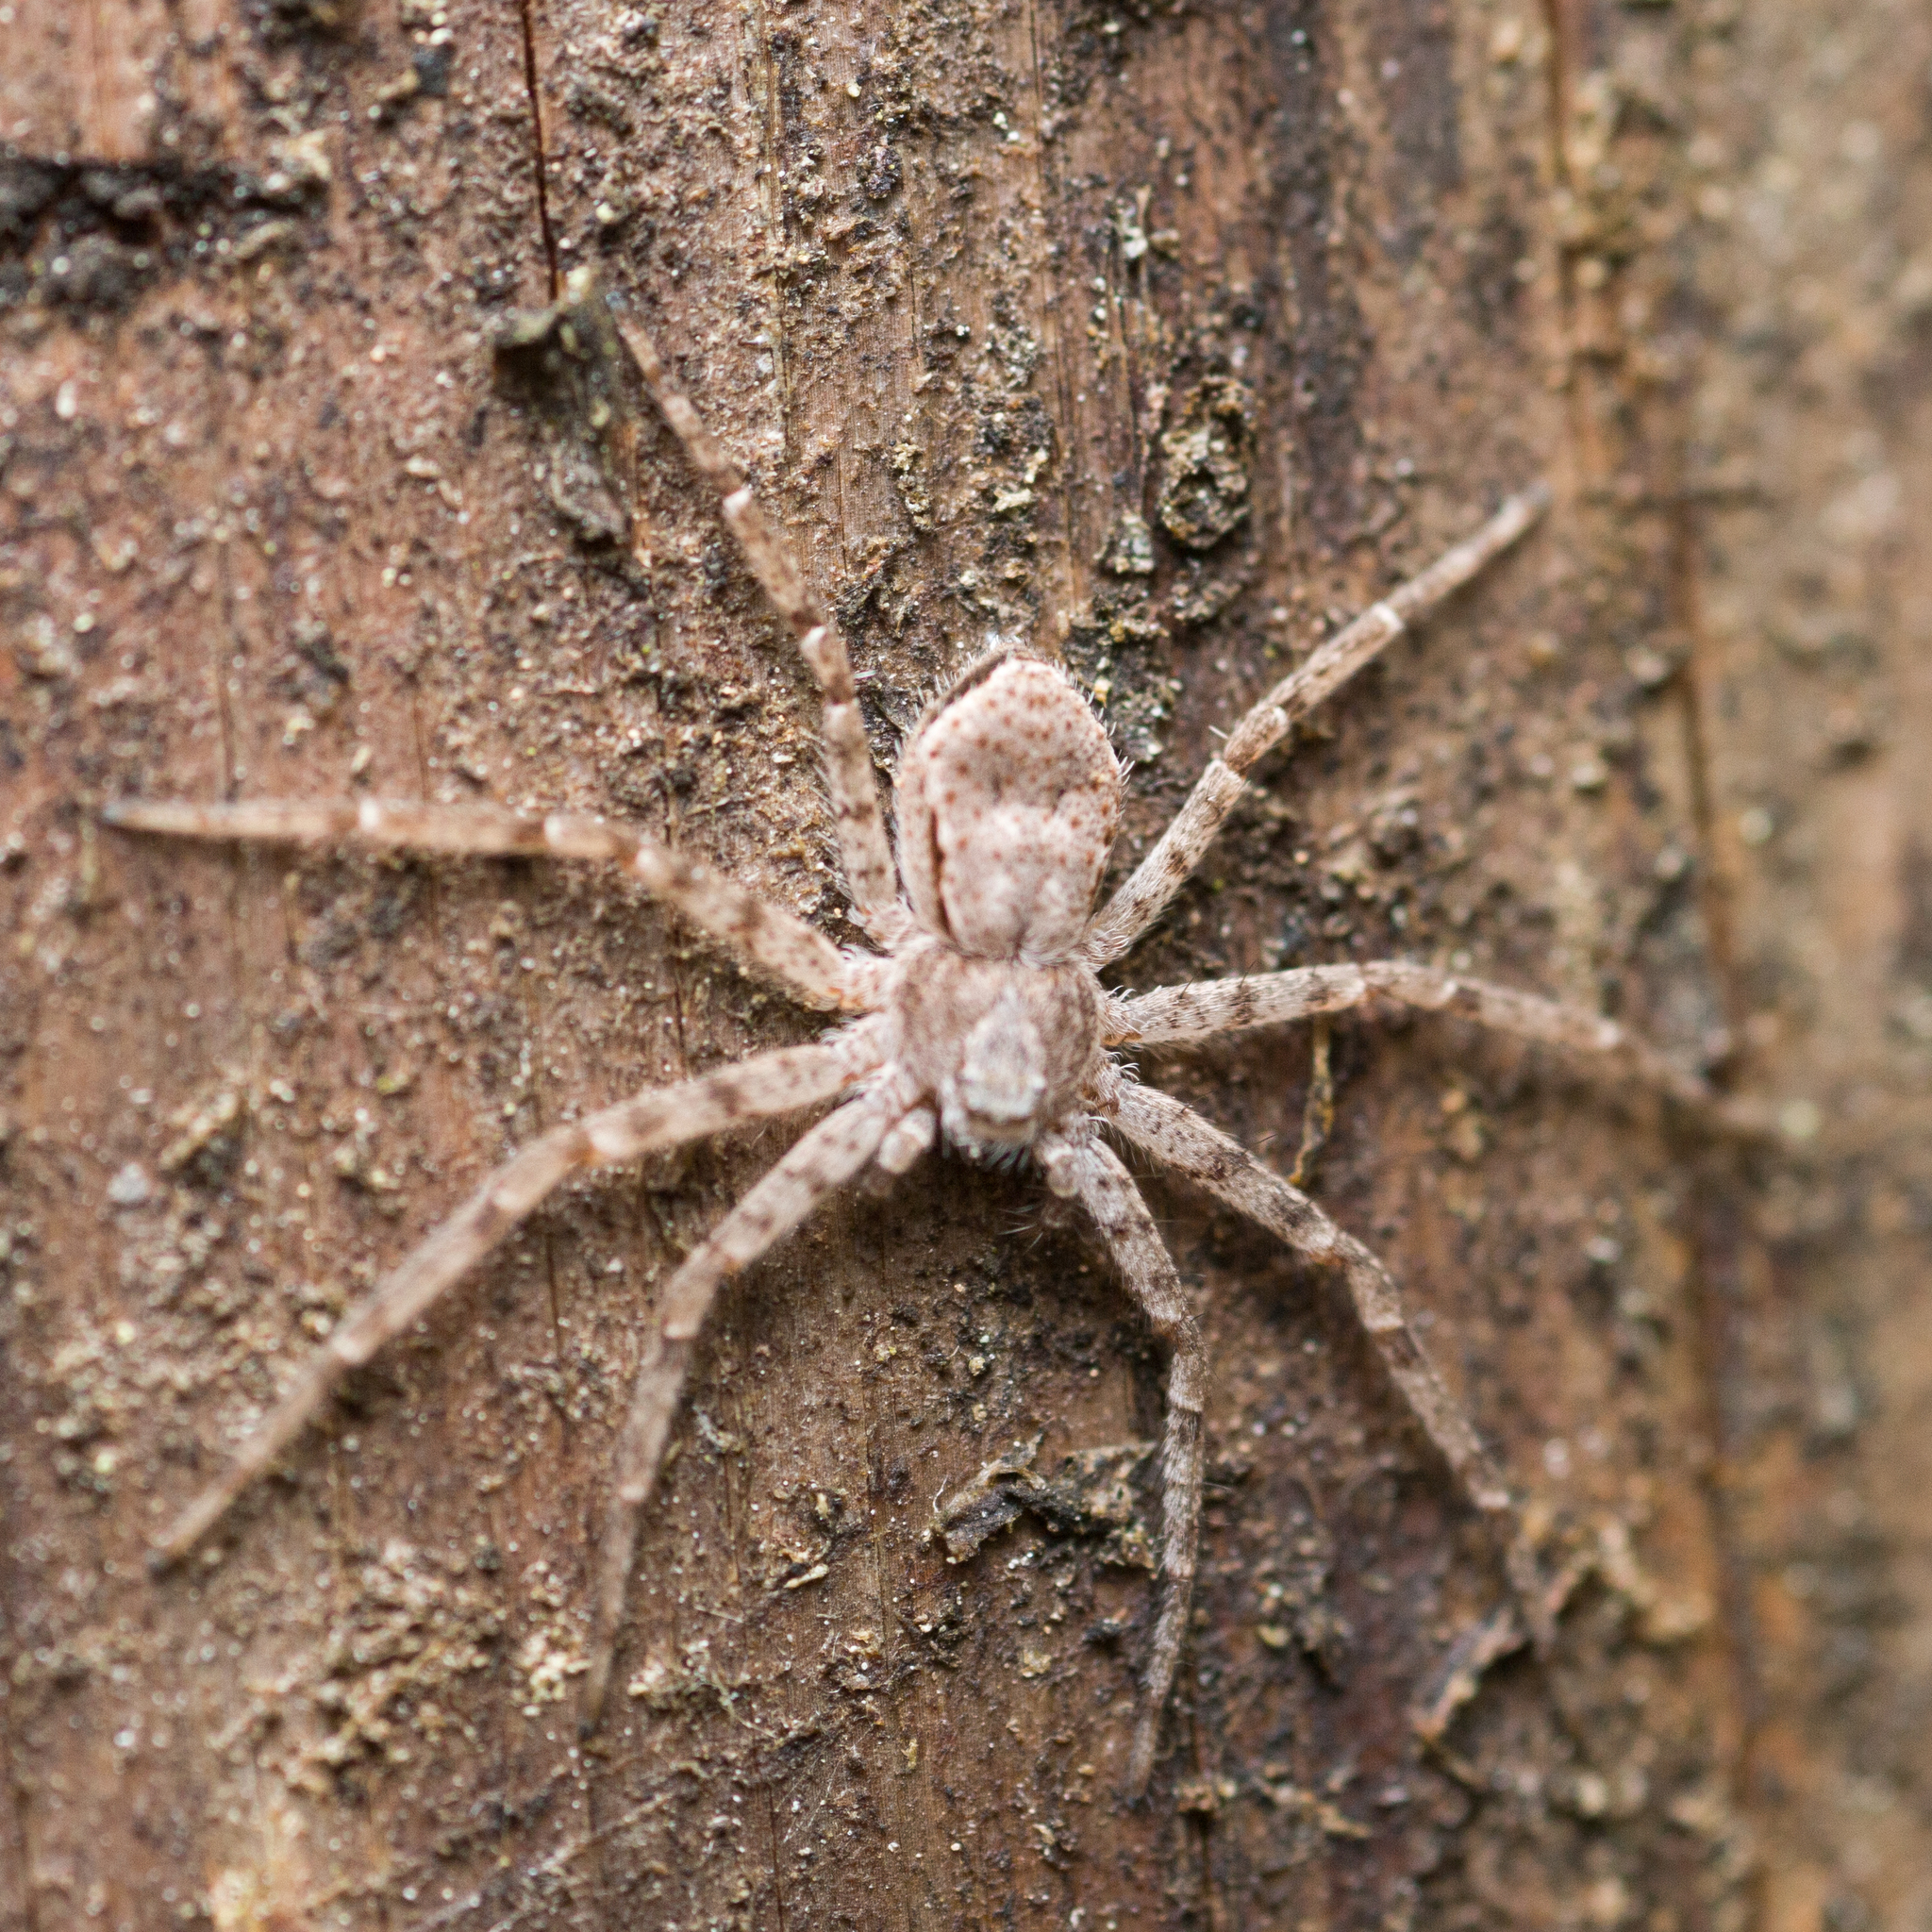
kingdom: Animalia
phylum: Arthropoda
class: Arachnida
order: Araneae
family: Philodromidae
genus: Philodromus
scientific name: Philodromus fuscomarginatus
